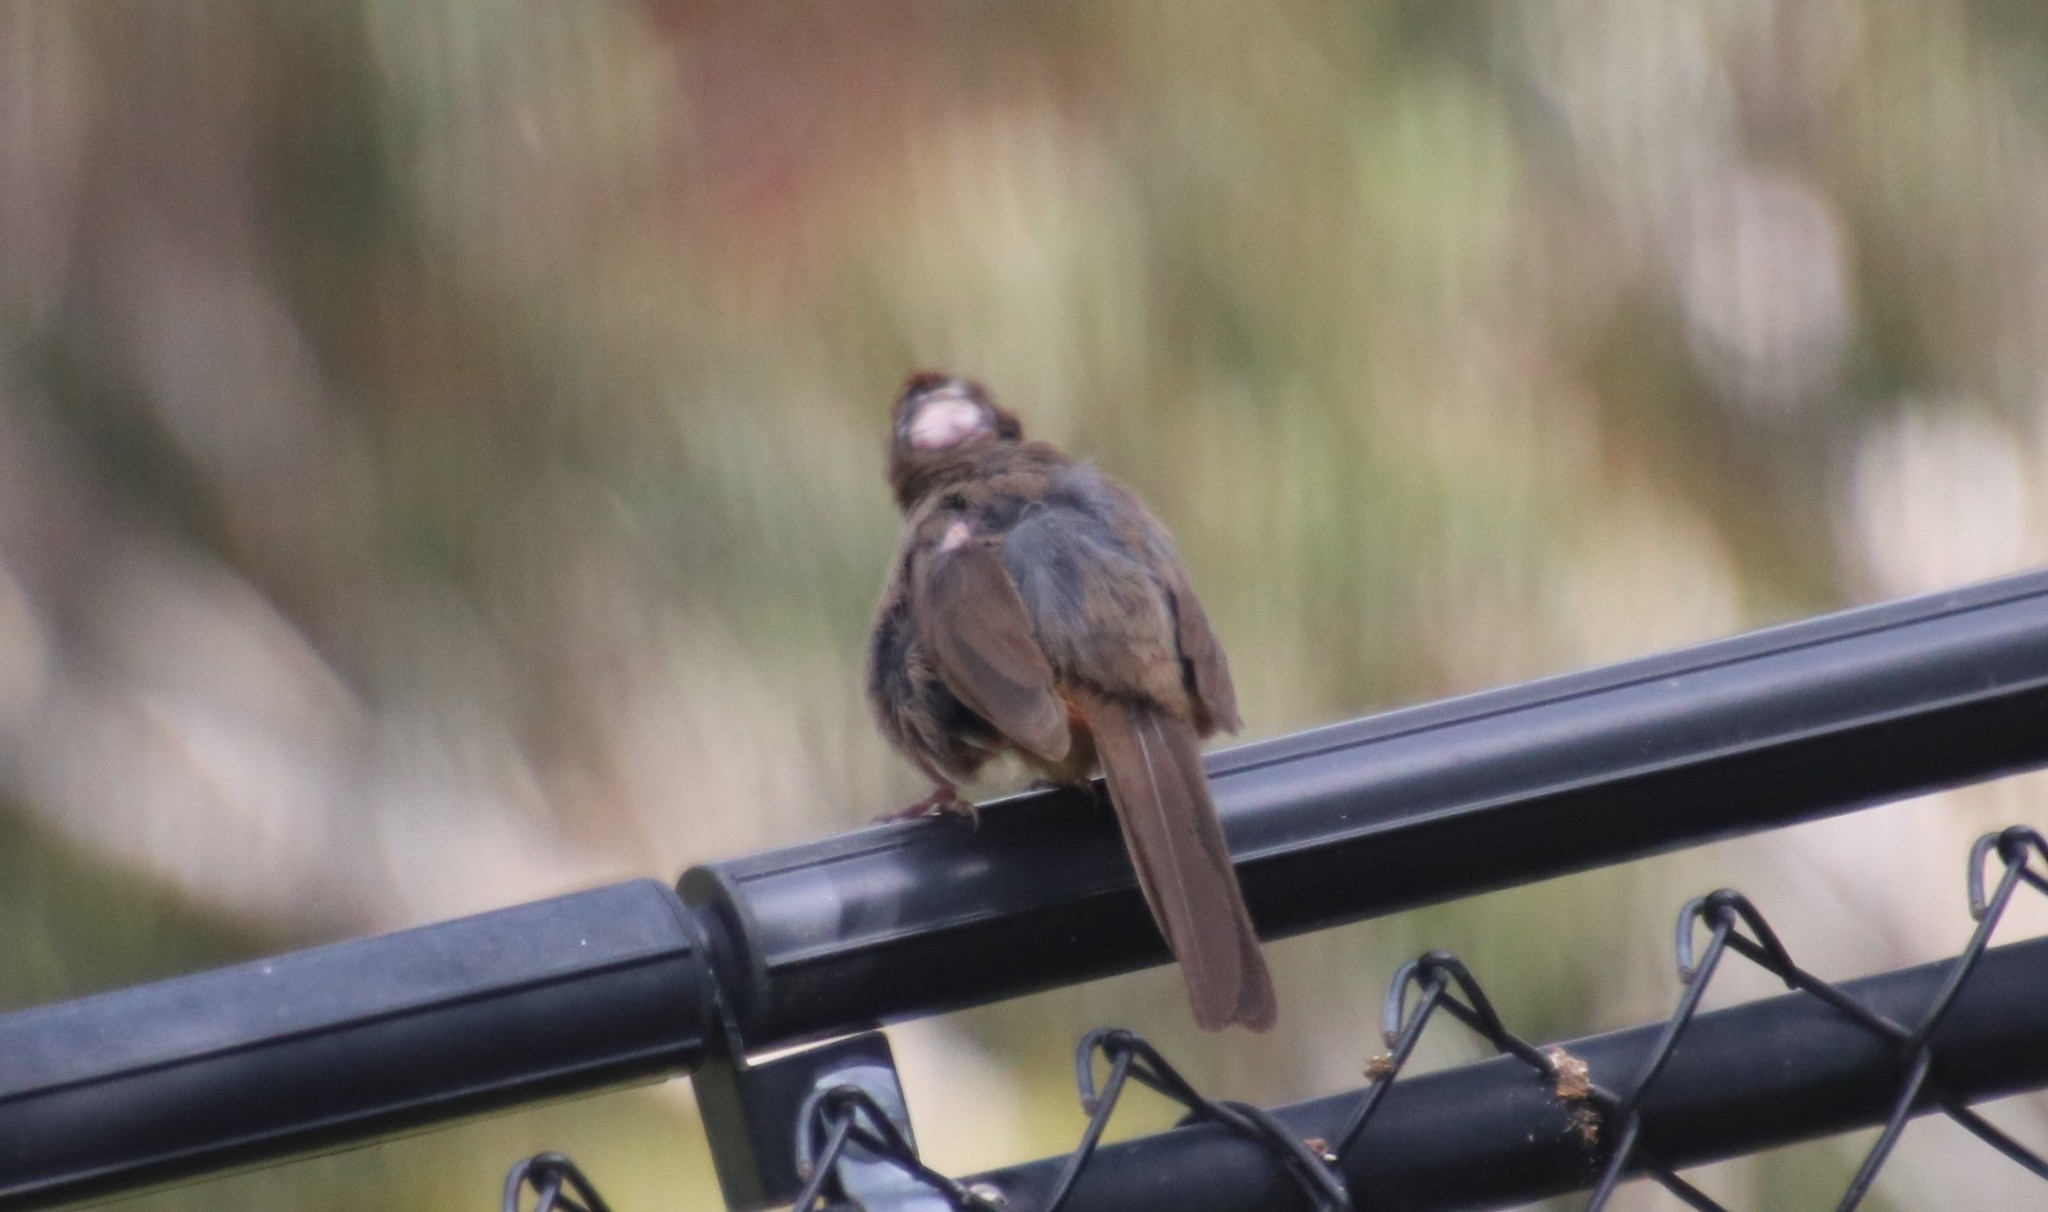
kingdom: Animalia
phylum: Chordata
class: Aves
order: Passeriformes
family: Passerellidae
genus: Melozone
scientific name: Melozone crissalis
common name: California towhee
